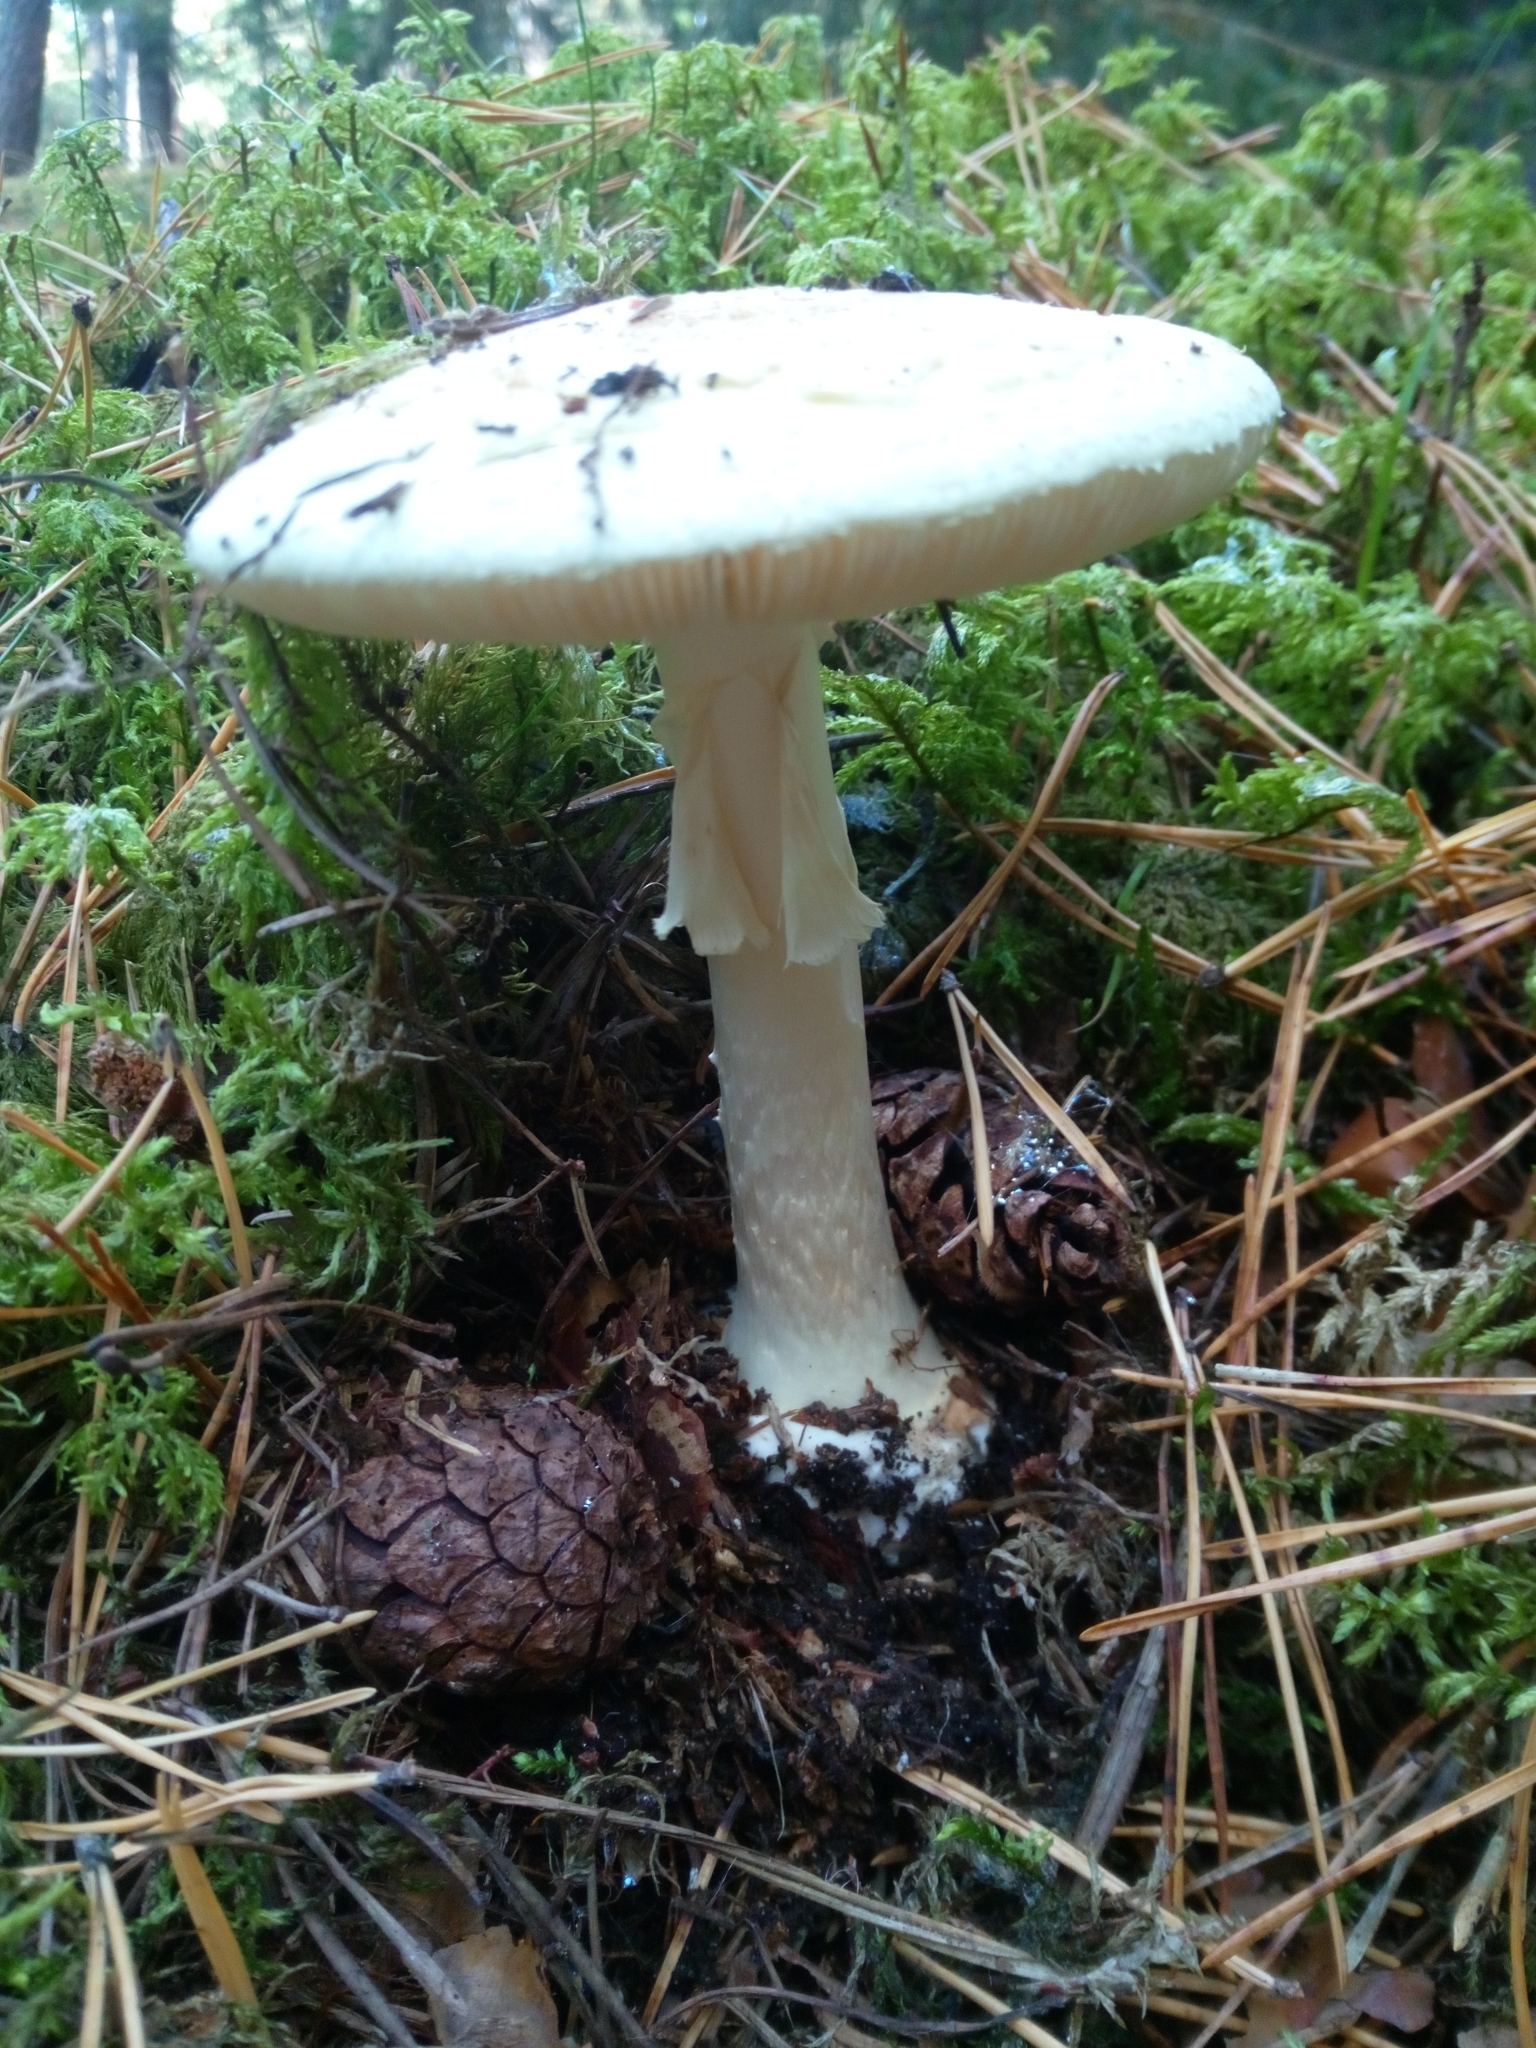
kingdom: Fungi
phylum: Basidiomycota
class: Agaricomycetes
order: Agaricales
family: Amanitaceae
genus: Amanita
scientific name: Amanita citrina
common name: False death-cap
